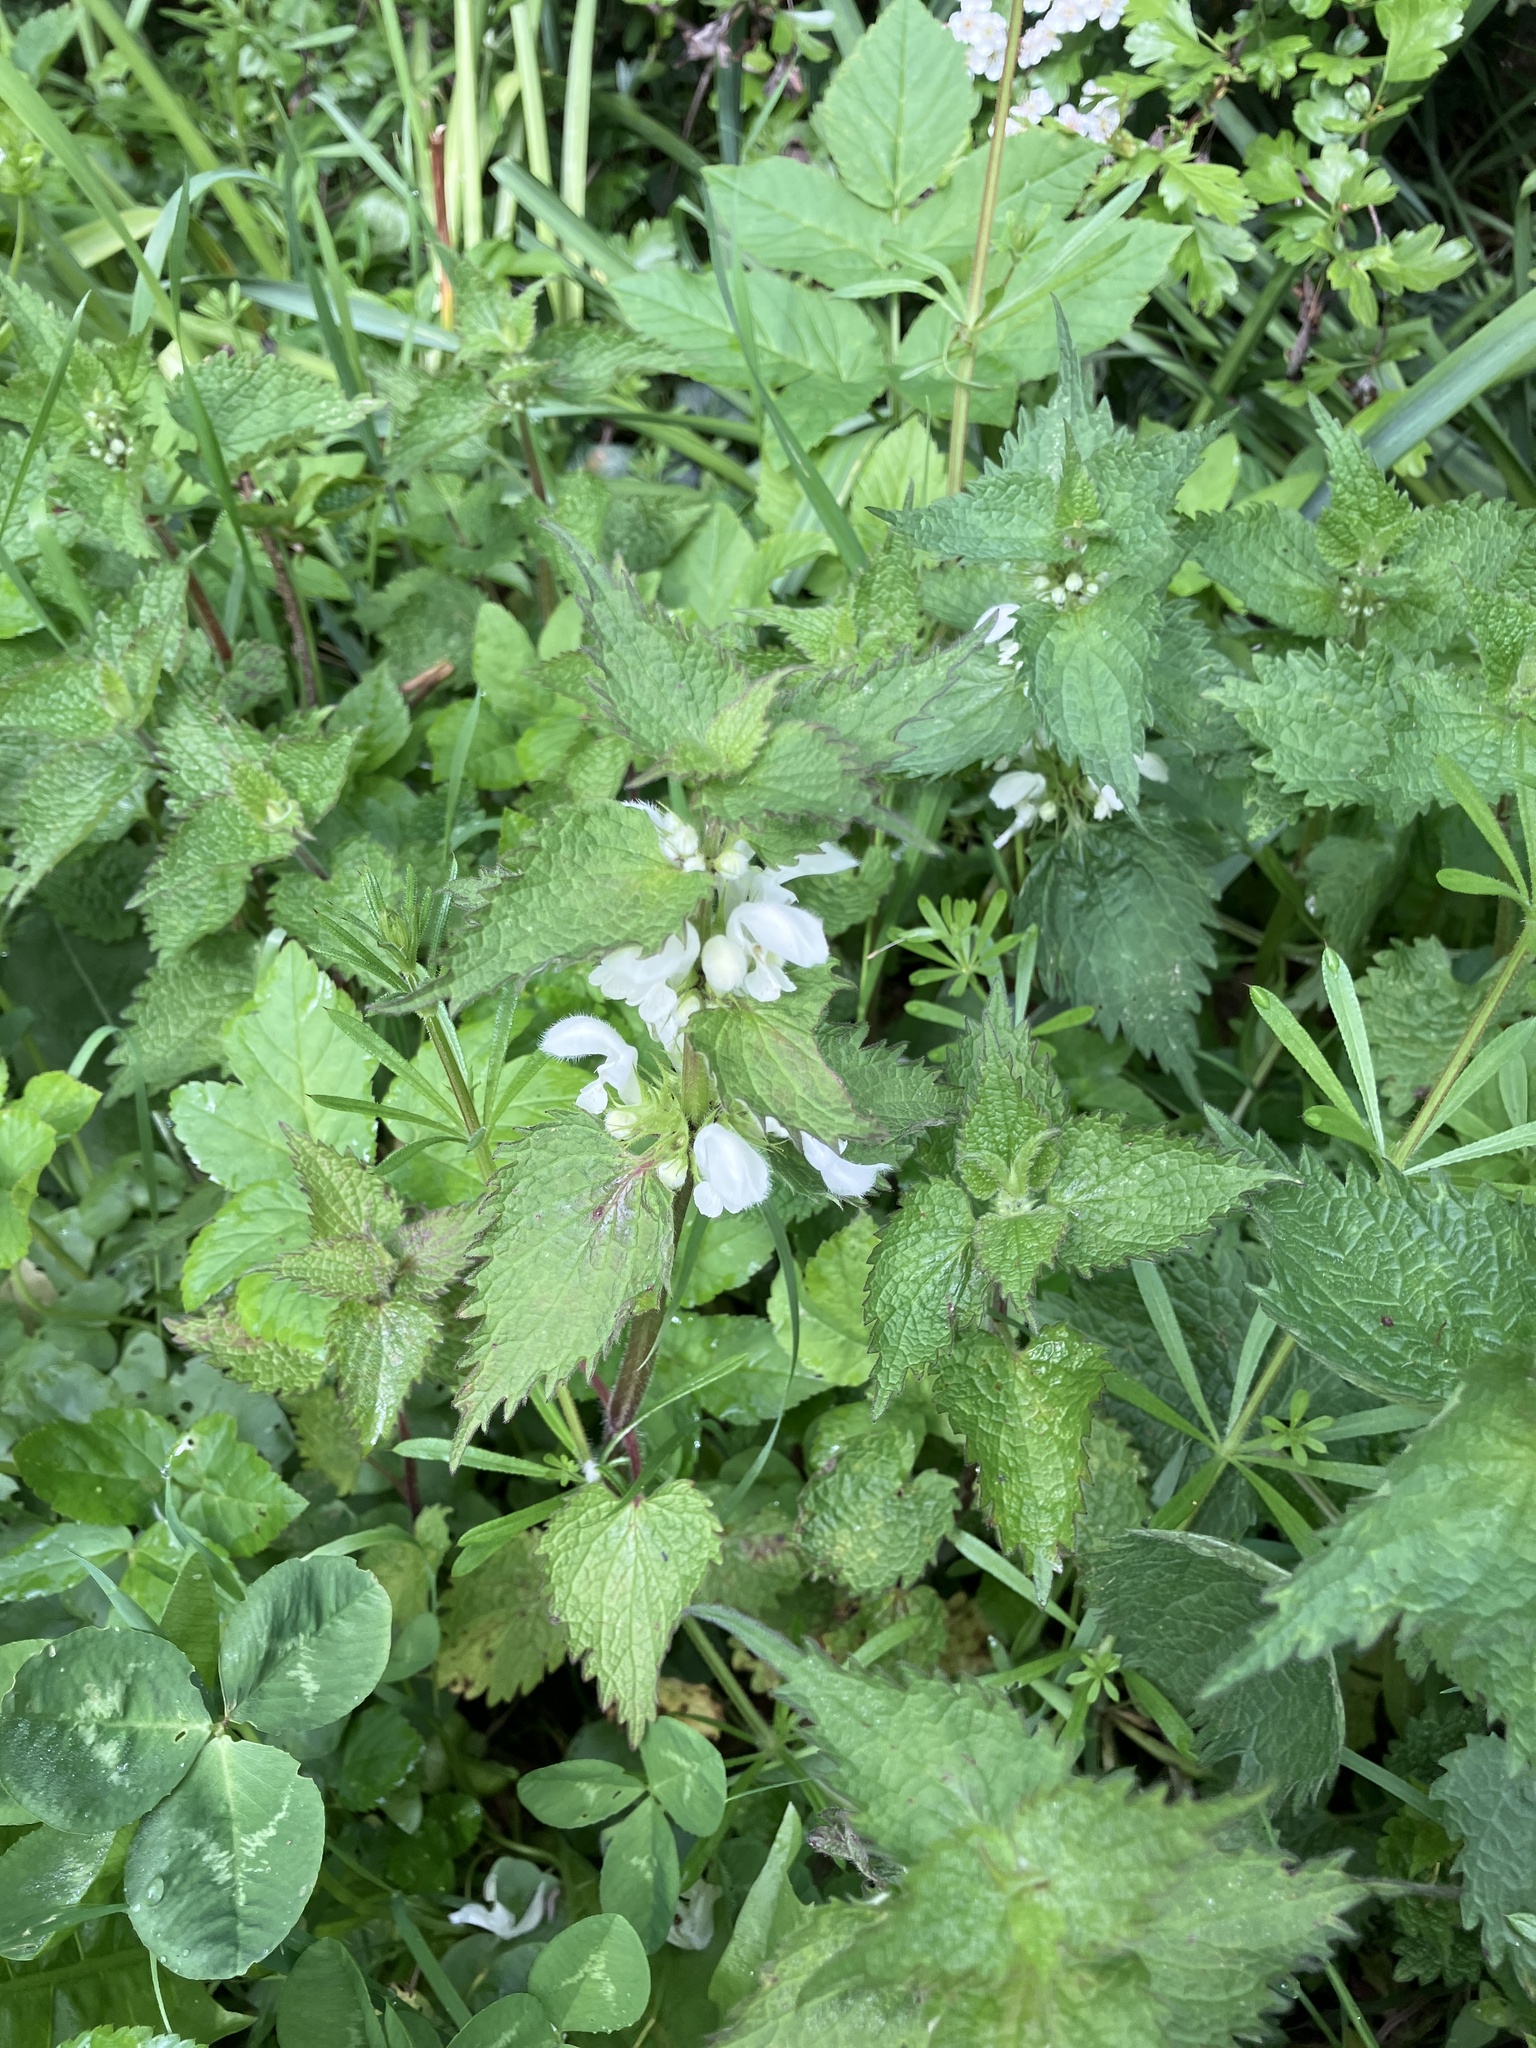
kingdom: Plantae
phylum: Tracheophyta
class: Magnoliopsida
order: Lamiales
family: Lamiaceae
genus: Lamium
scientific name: Lamium album
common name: White dead-nettle
